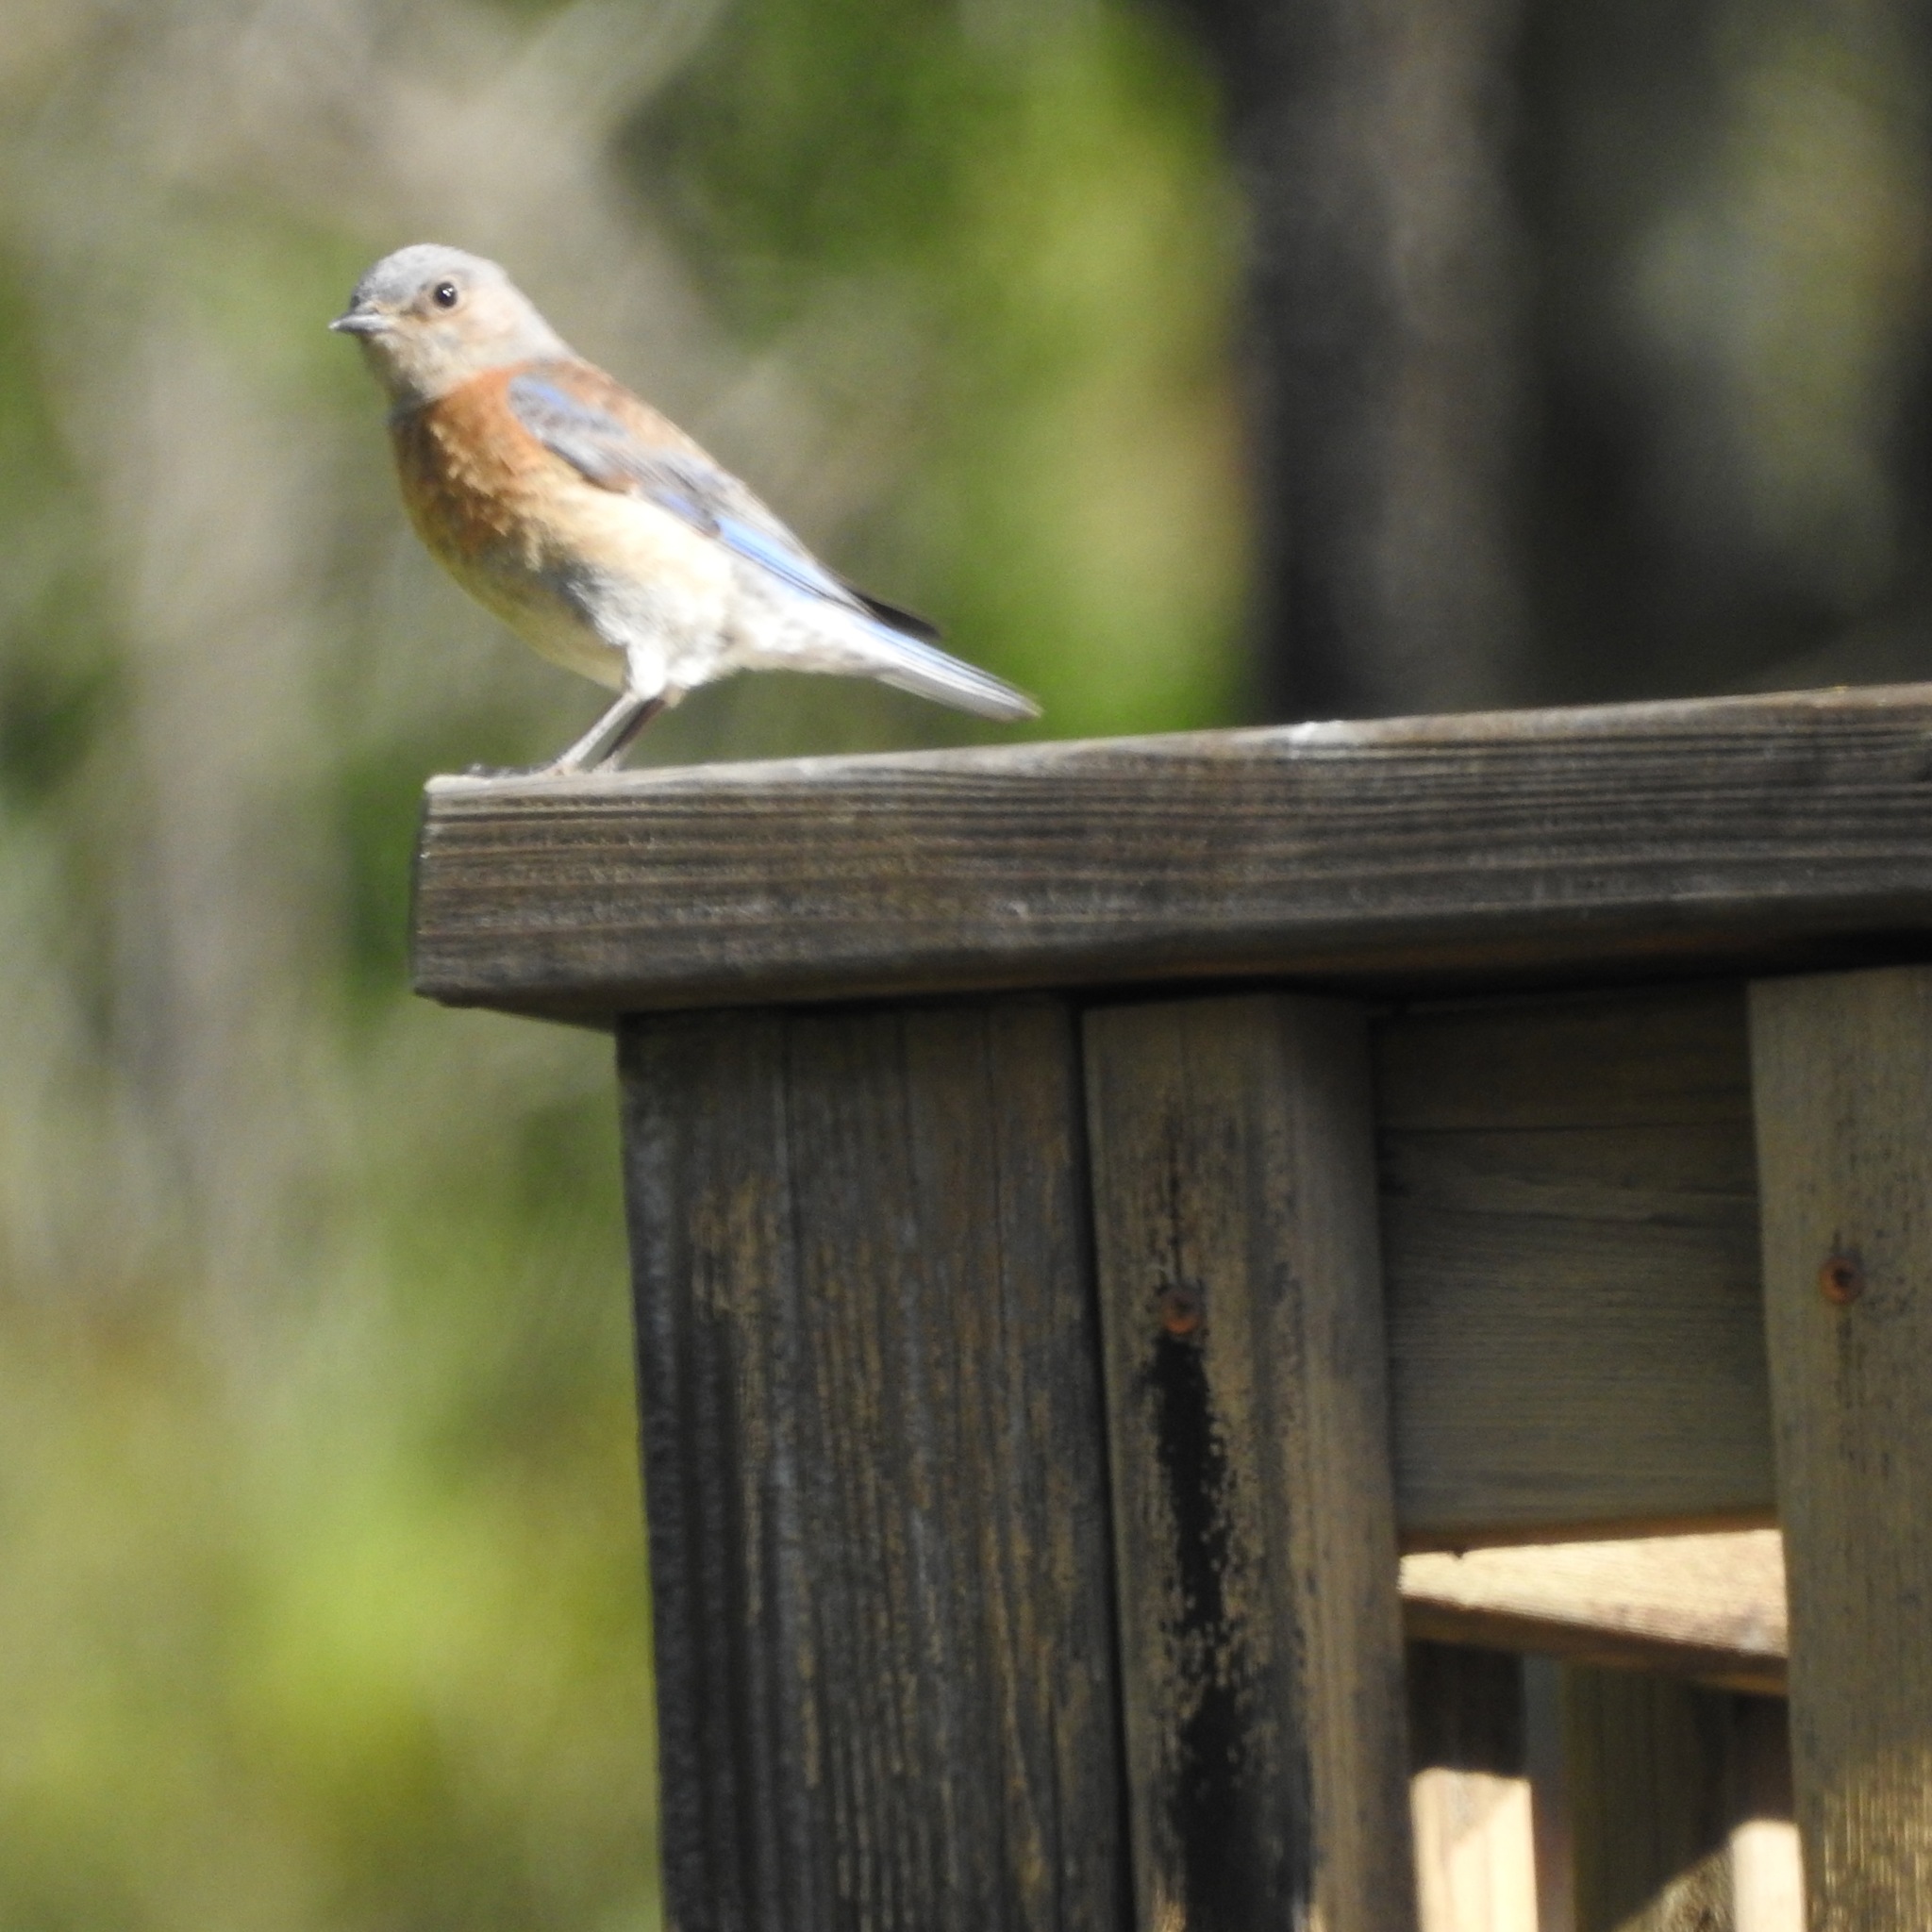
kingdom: Animalia
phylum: Chordata
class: Aves
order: Passeriformes
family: Turdidae
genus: Sialia
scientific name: Sialia mexicana
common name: Western bluebird
